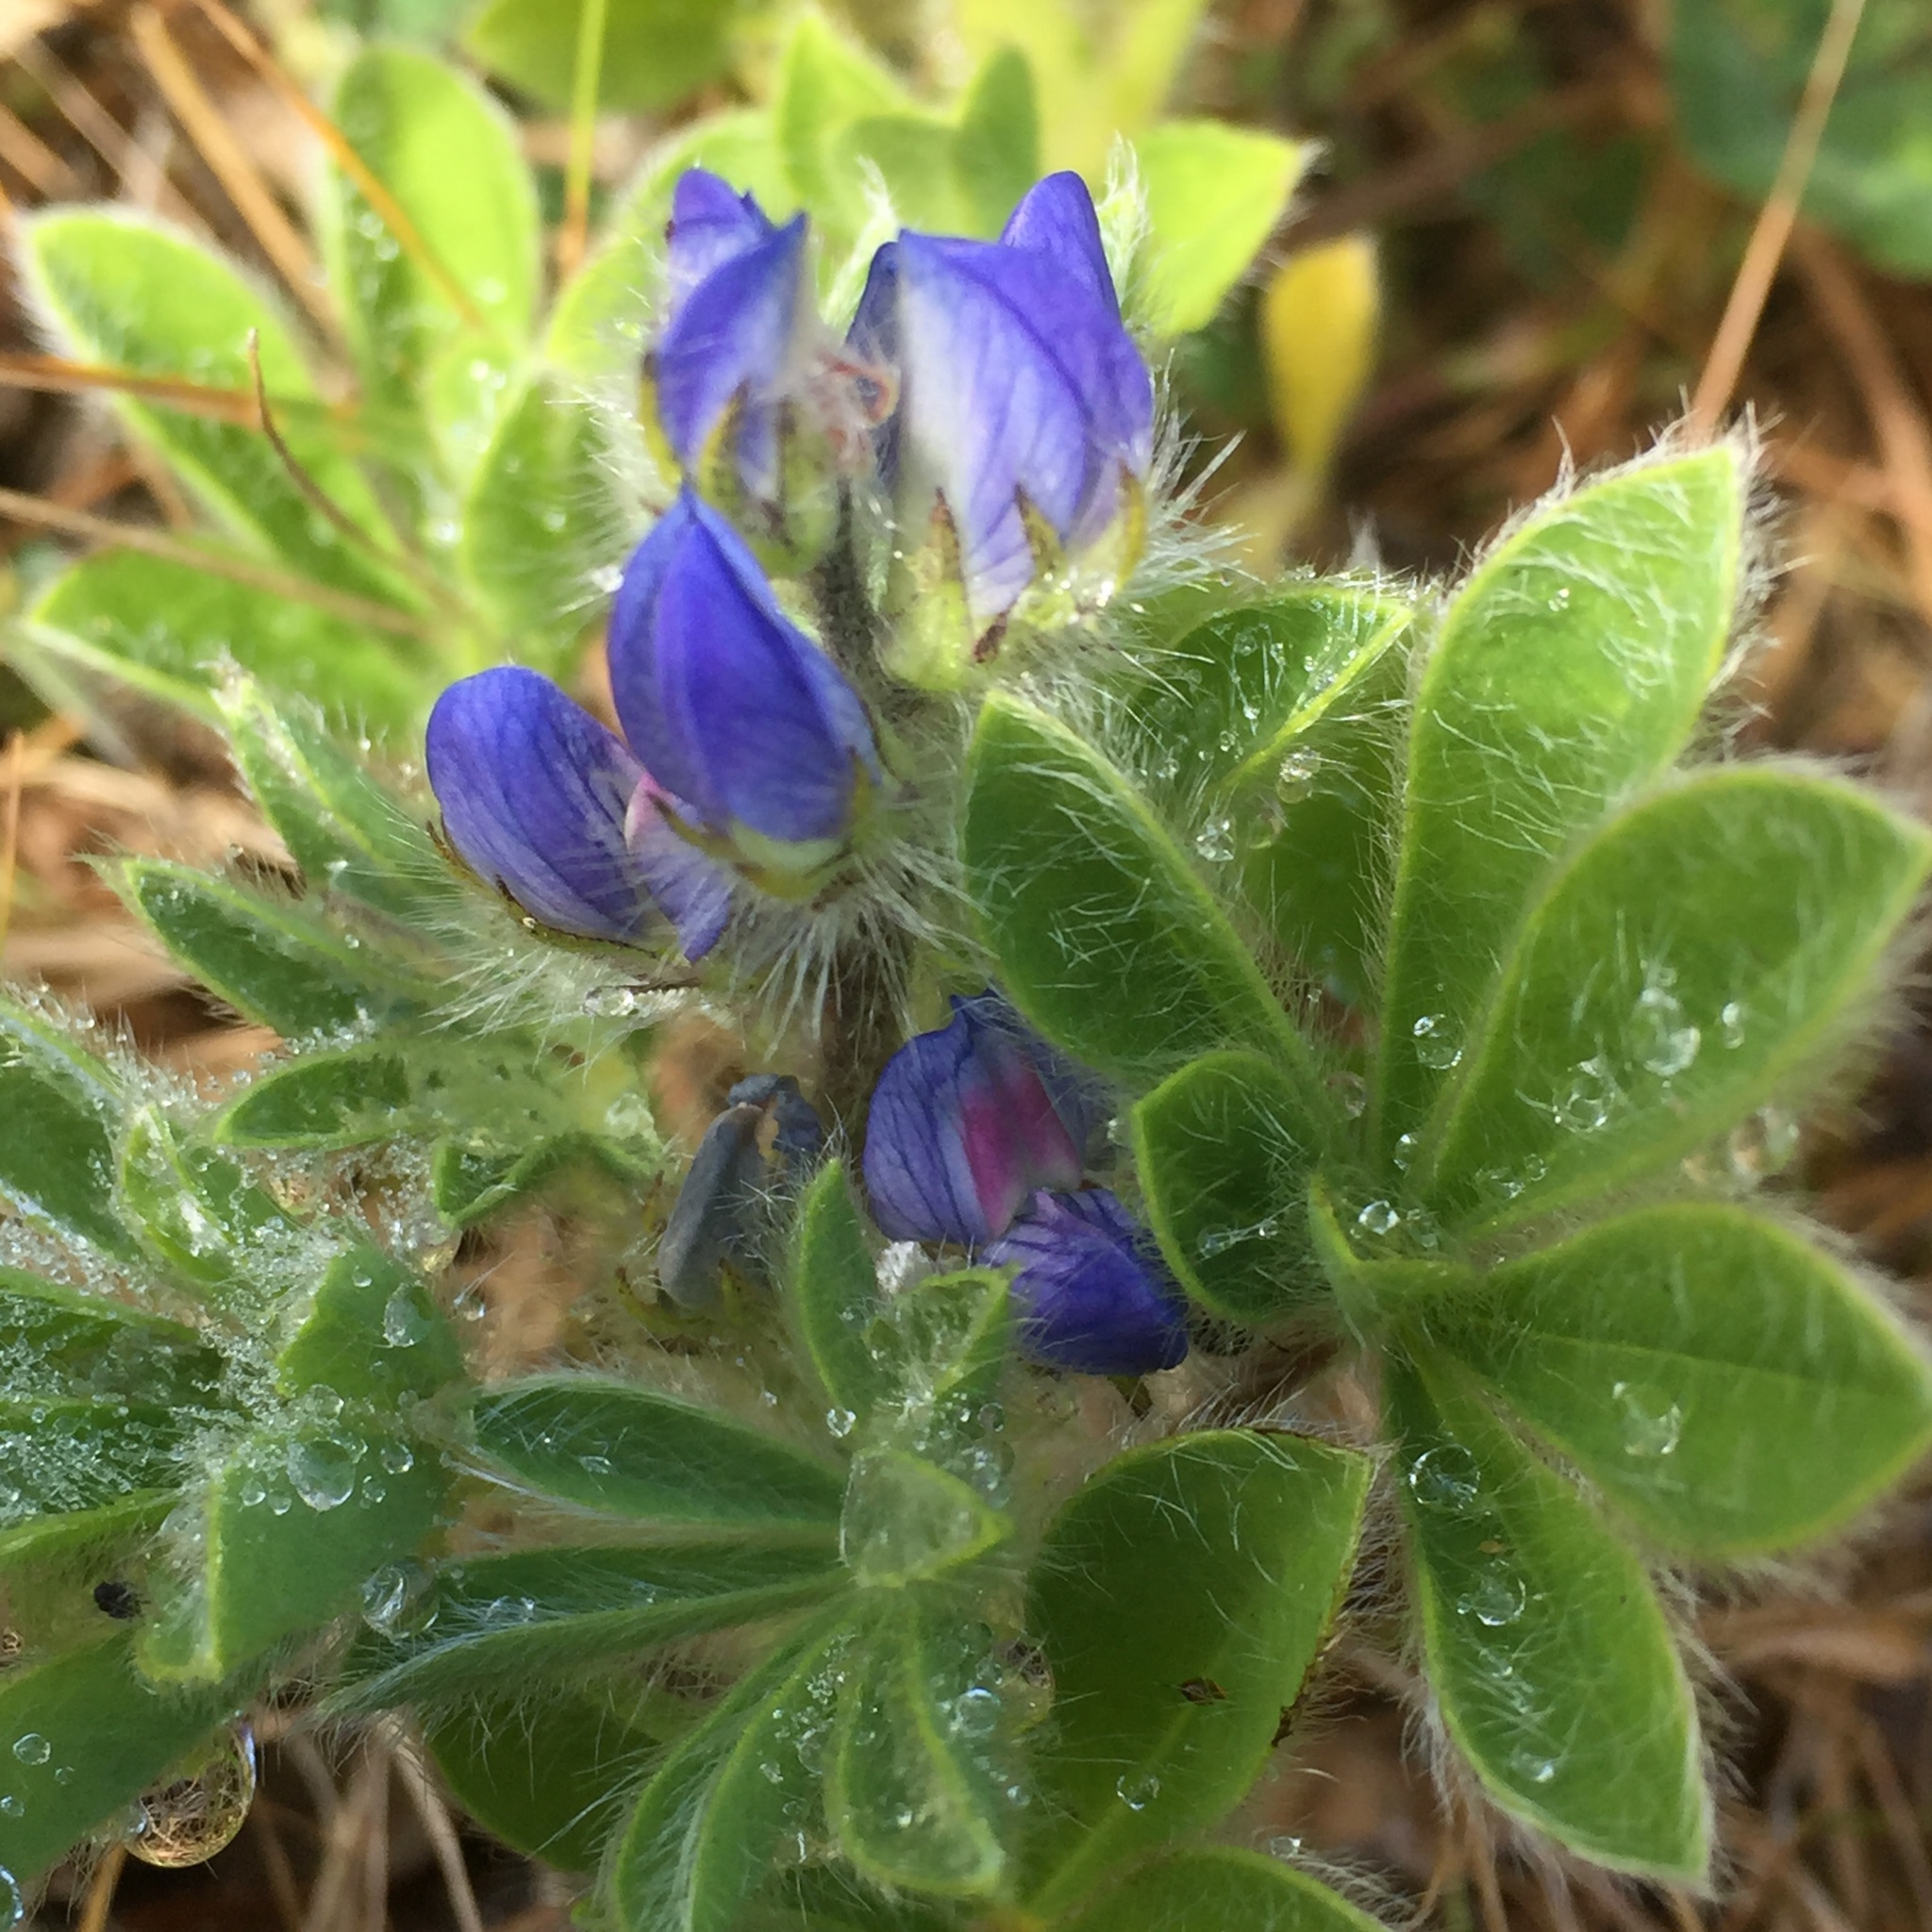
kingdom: Plantae
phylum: Tracheophyta
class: Magnoliopsida
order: Fabales
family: Fabaceae
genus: Lupinus
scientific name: Lupinus gussoneanus
